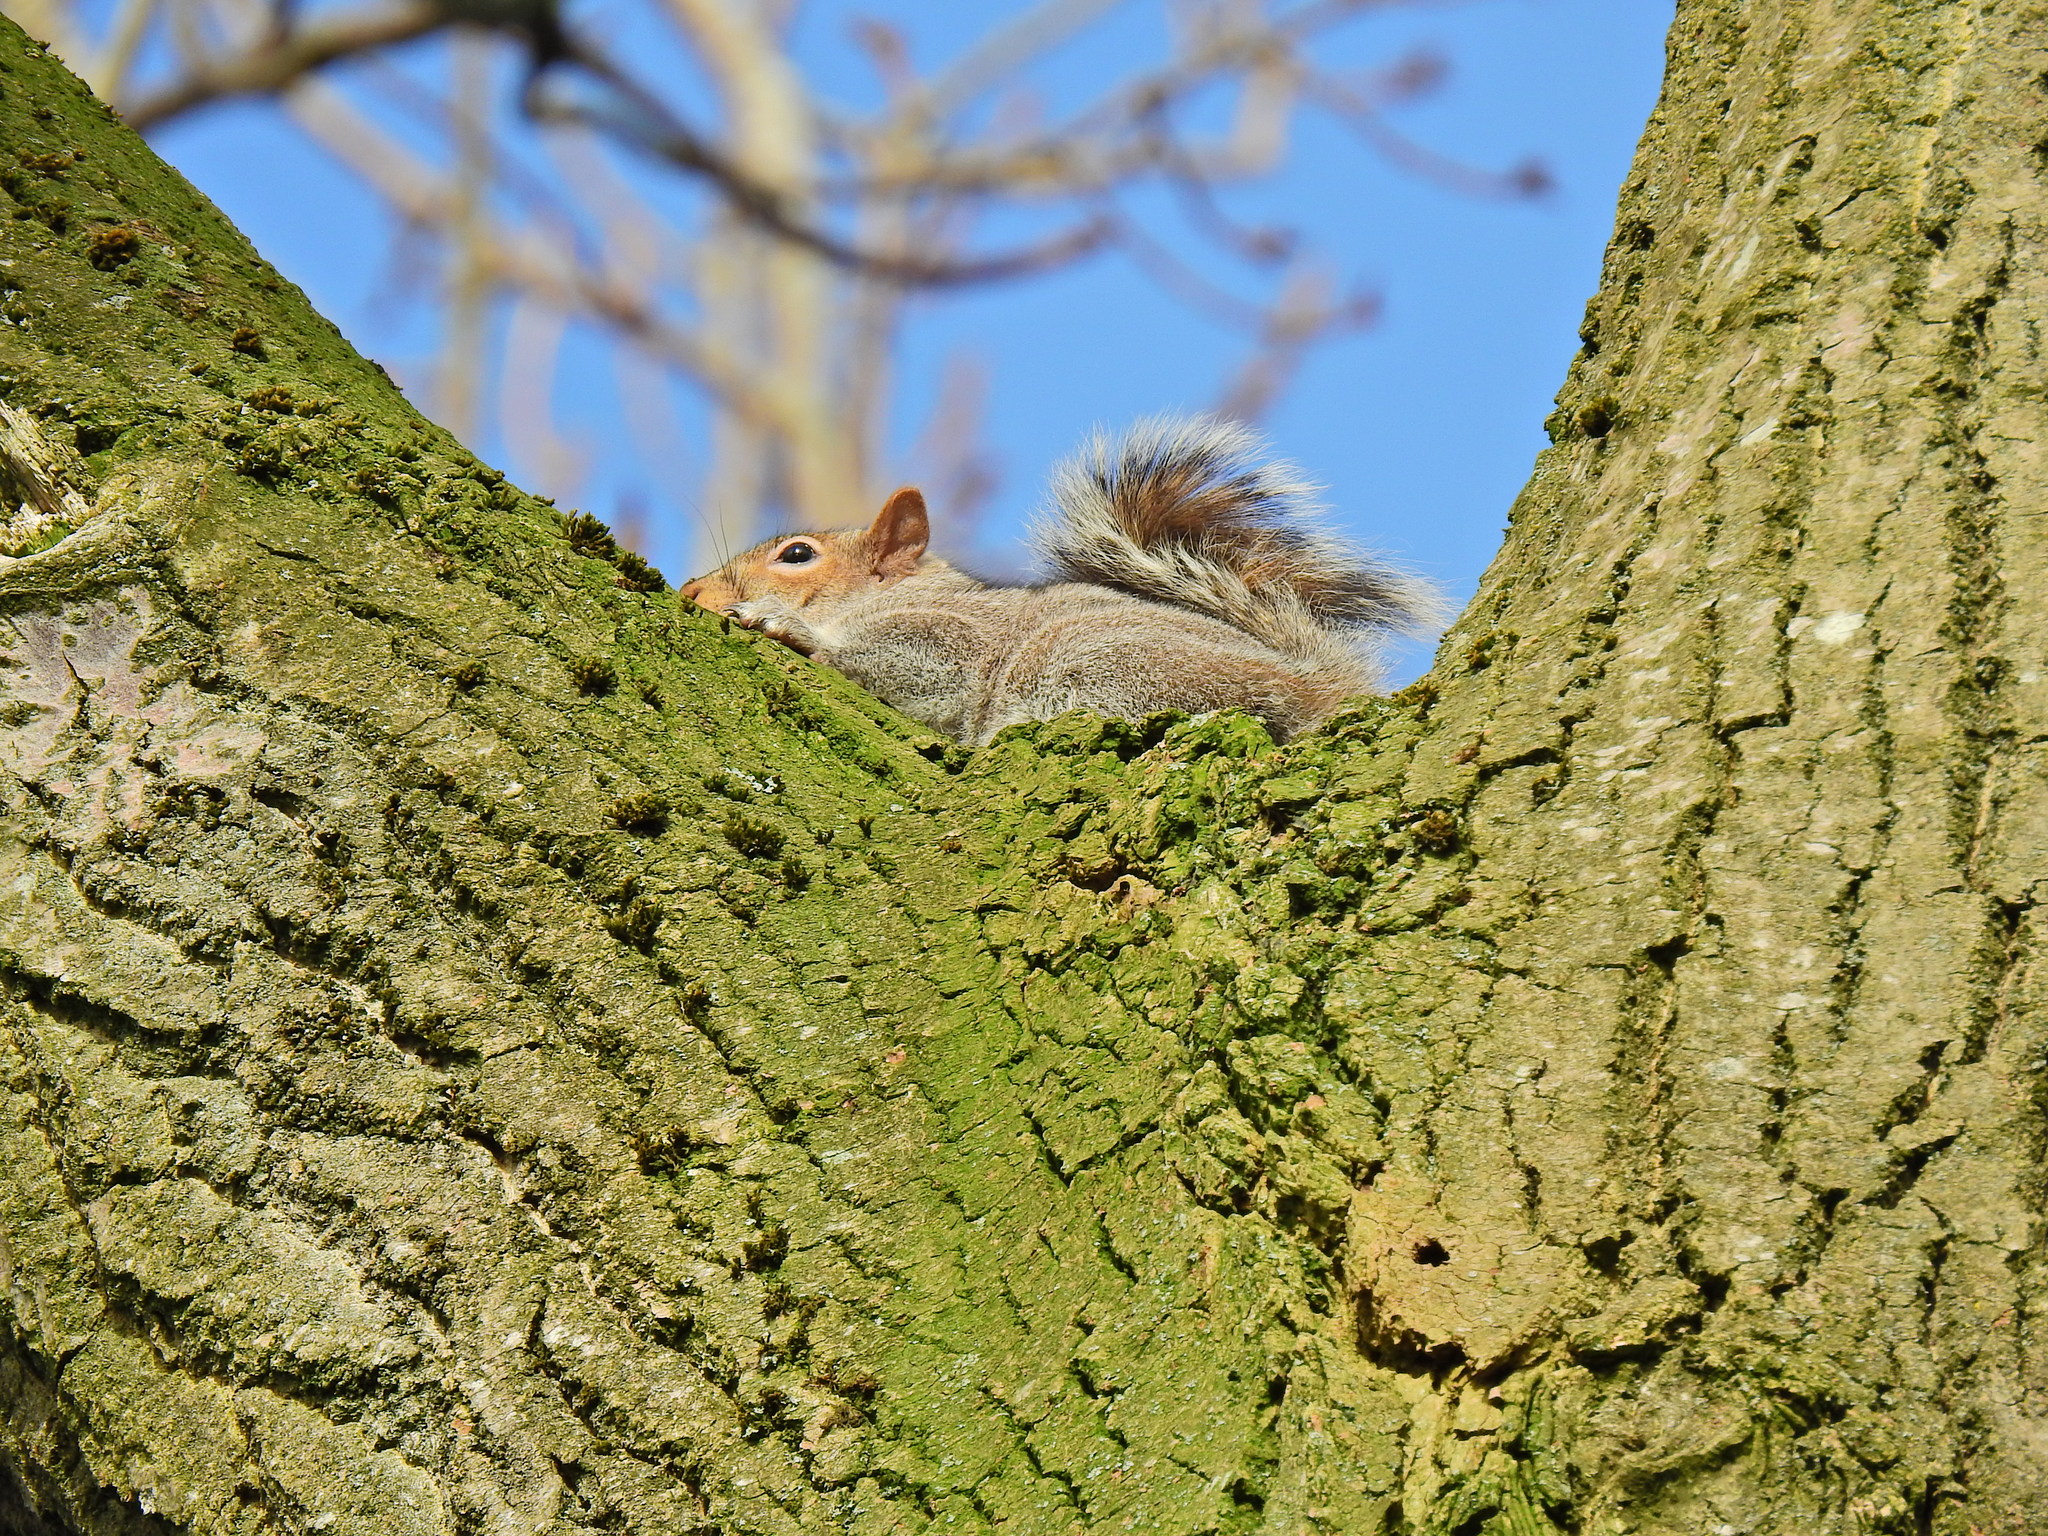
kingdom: Animalia
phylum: Chordata
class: Mammalia
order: Rodentia
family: Sciuridae
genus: Sciurus
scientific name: Sciurus carolinensis
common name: Eastern gray squirrel
